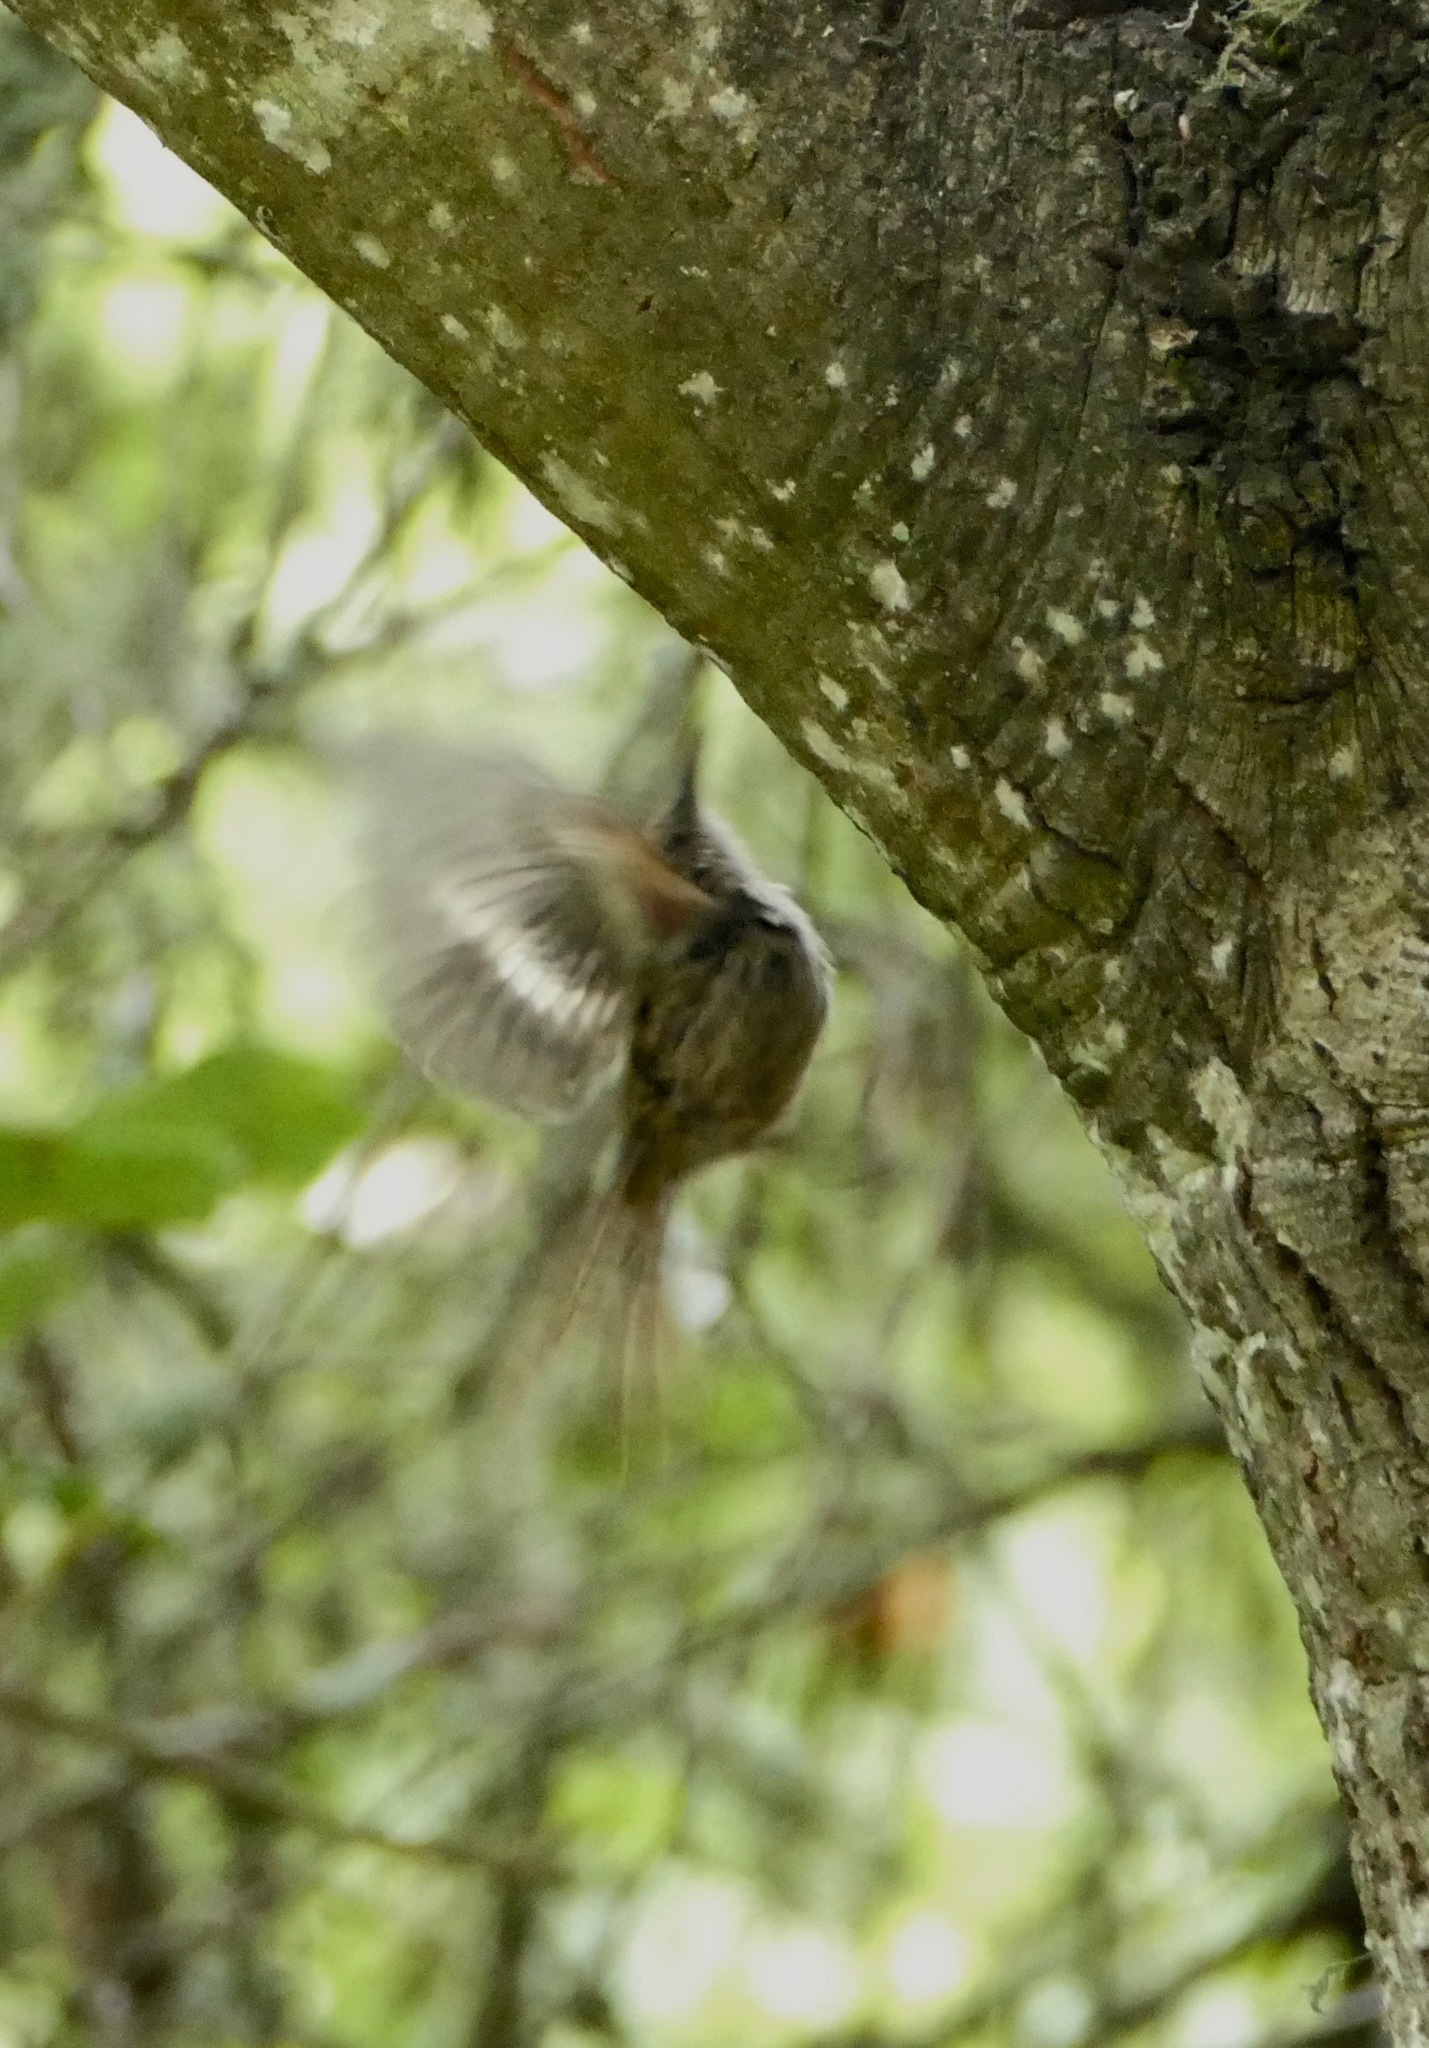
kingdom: Animalia
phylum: Chordata
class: Aves
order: Passeriformes
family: Certhiidae
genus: Certhia
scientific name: Certhia americana
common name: Brown creeper
